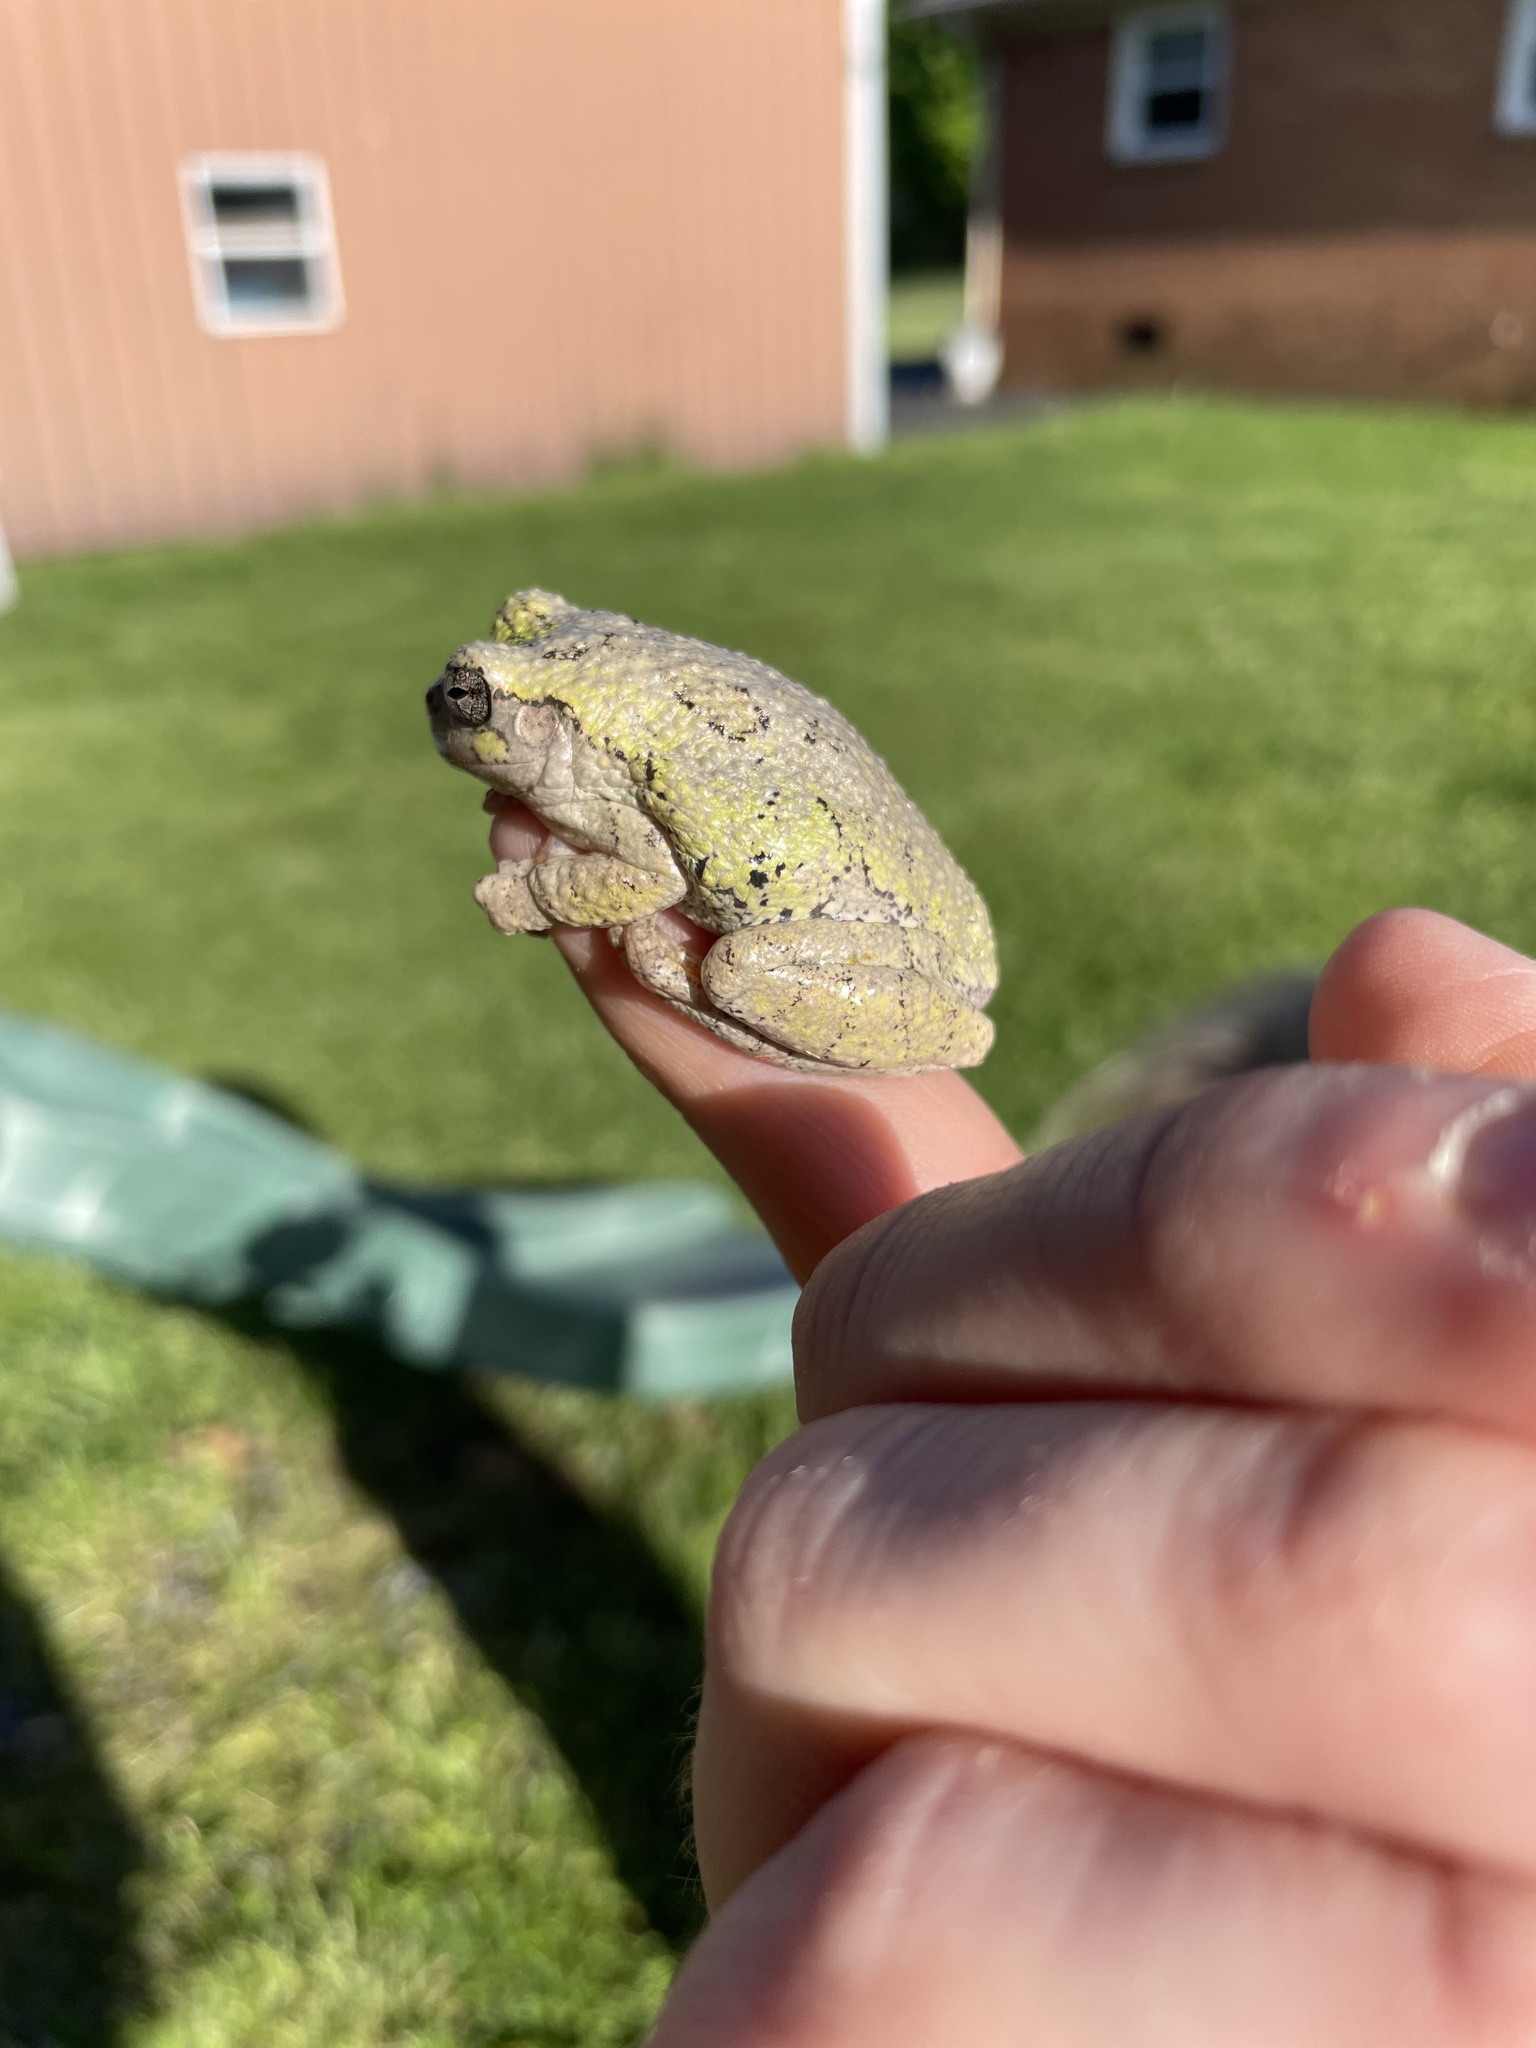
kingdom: Animalia
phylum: Chordata
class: Amphibia
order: Anura
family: Hylidae
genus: Dryophytes
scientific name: Dryophytes chrysoscelis
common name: Cope's gray treefrog
